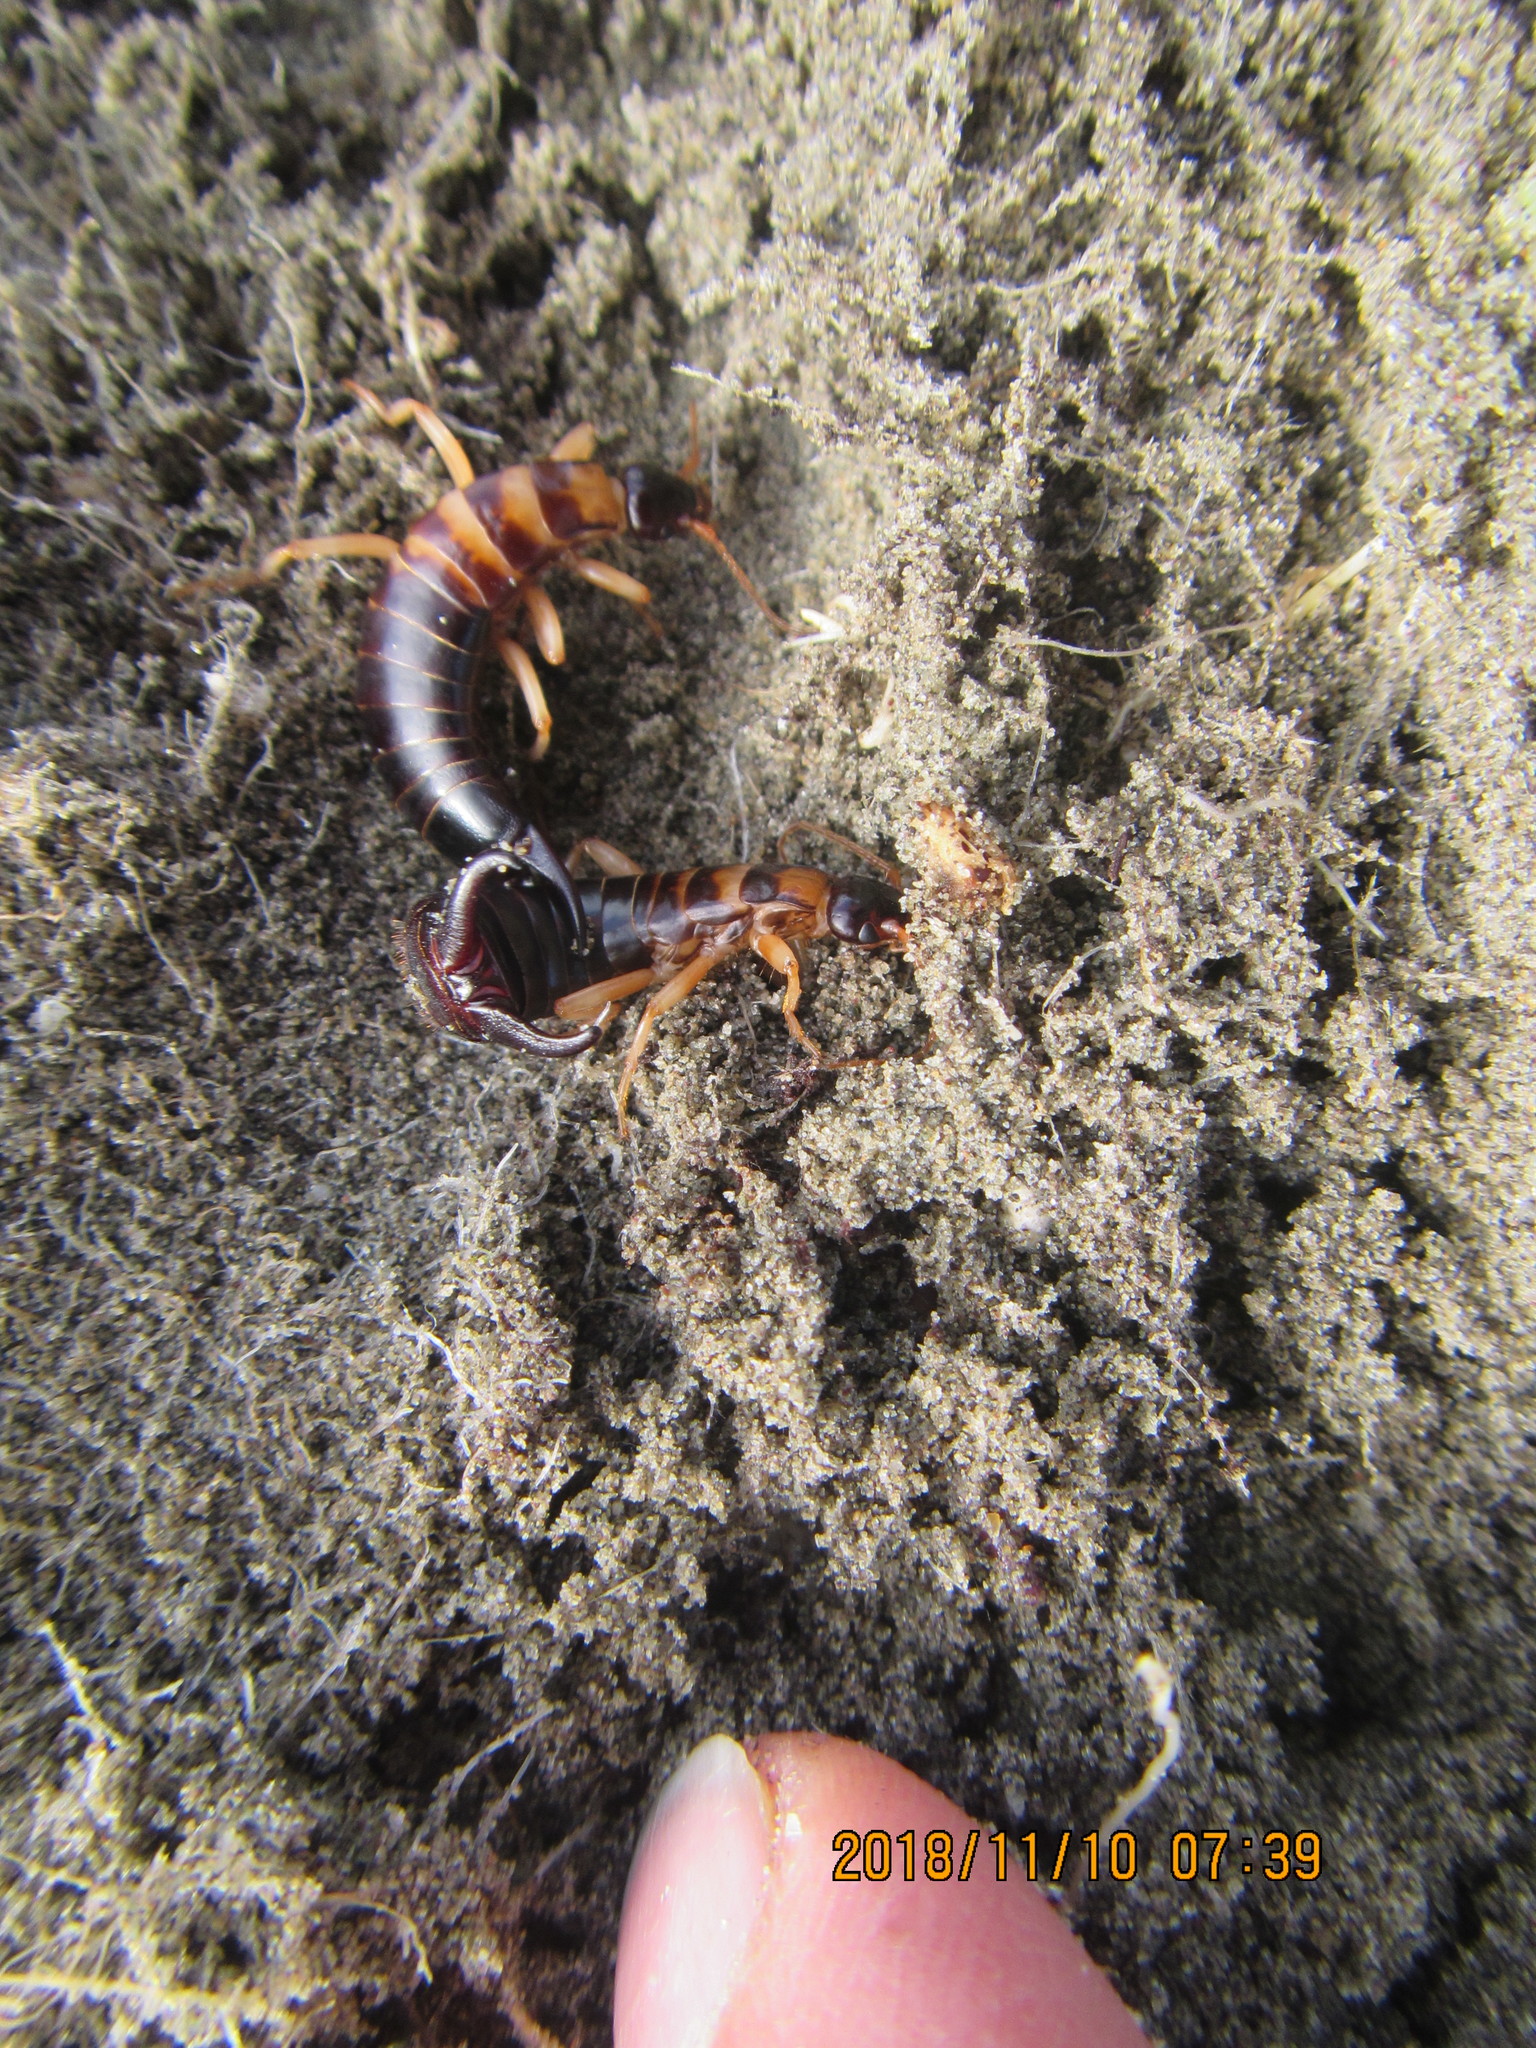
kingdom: Animalia
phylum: Arthropoda
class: Insecta
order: Dermaptera
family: Anisolabididae
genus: Anisolabis
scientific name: Anisolabis littorea
